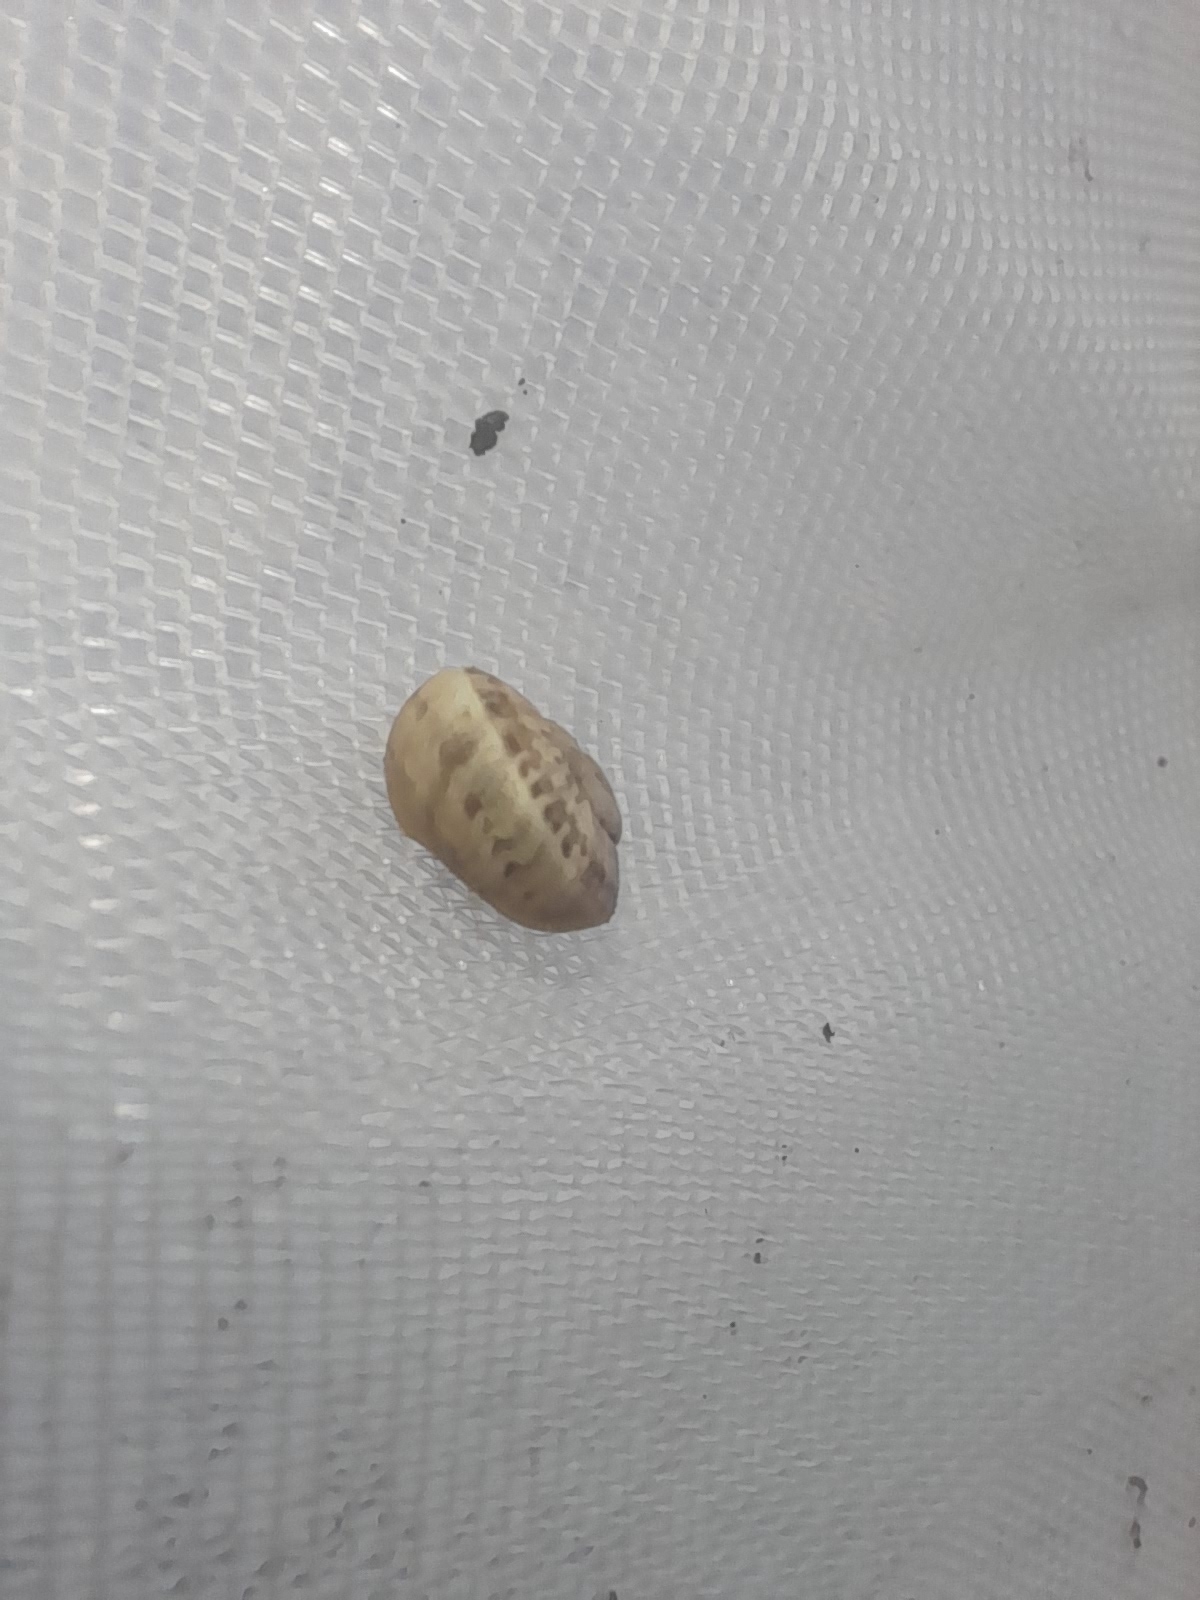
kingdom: Animalia
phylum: Mollusca
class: Gastropoda
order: Stylommatophora
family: Helicidae
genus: Eobania
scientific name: Eobania vermiculata
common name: Chocolateband snail
